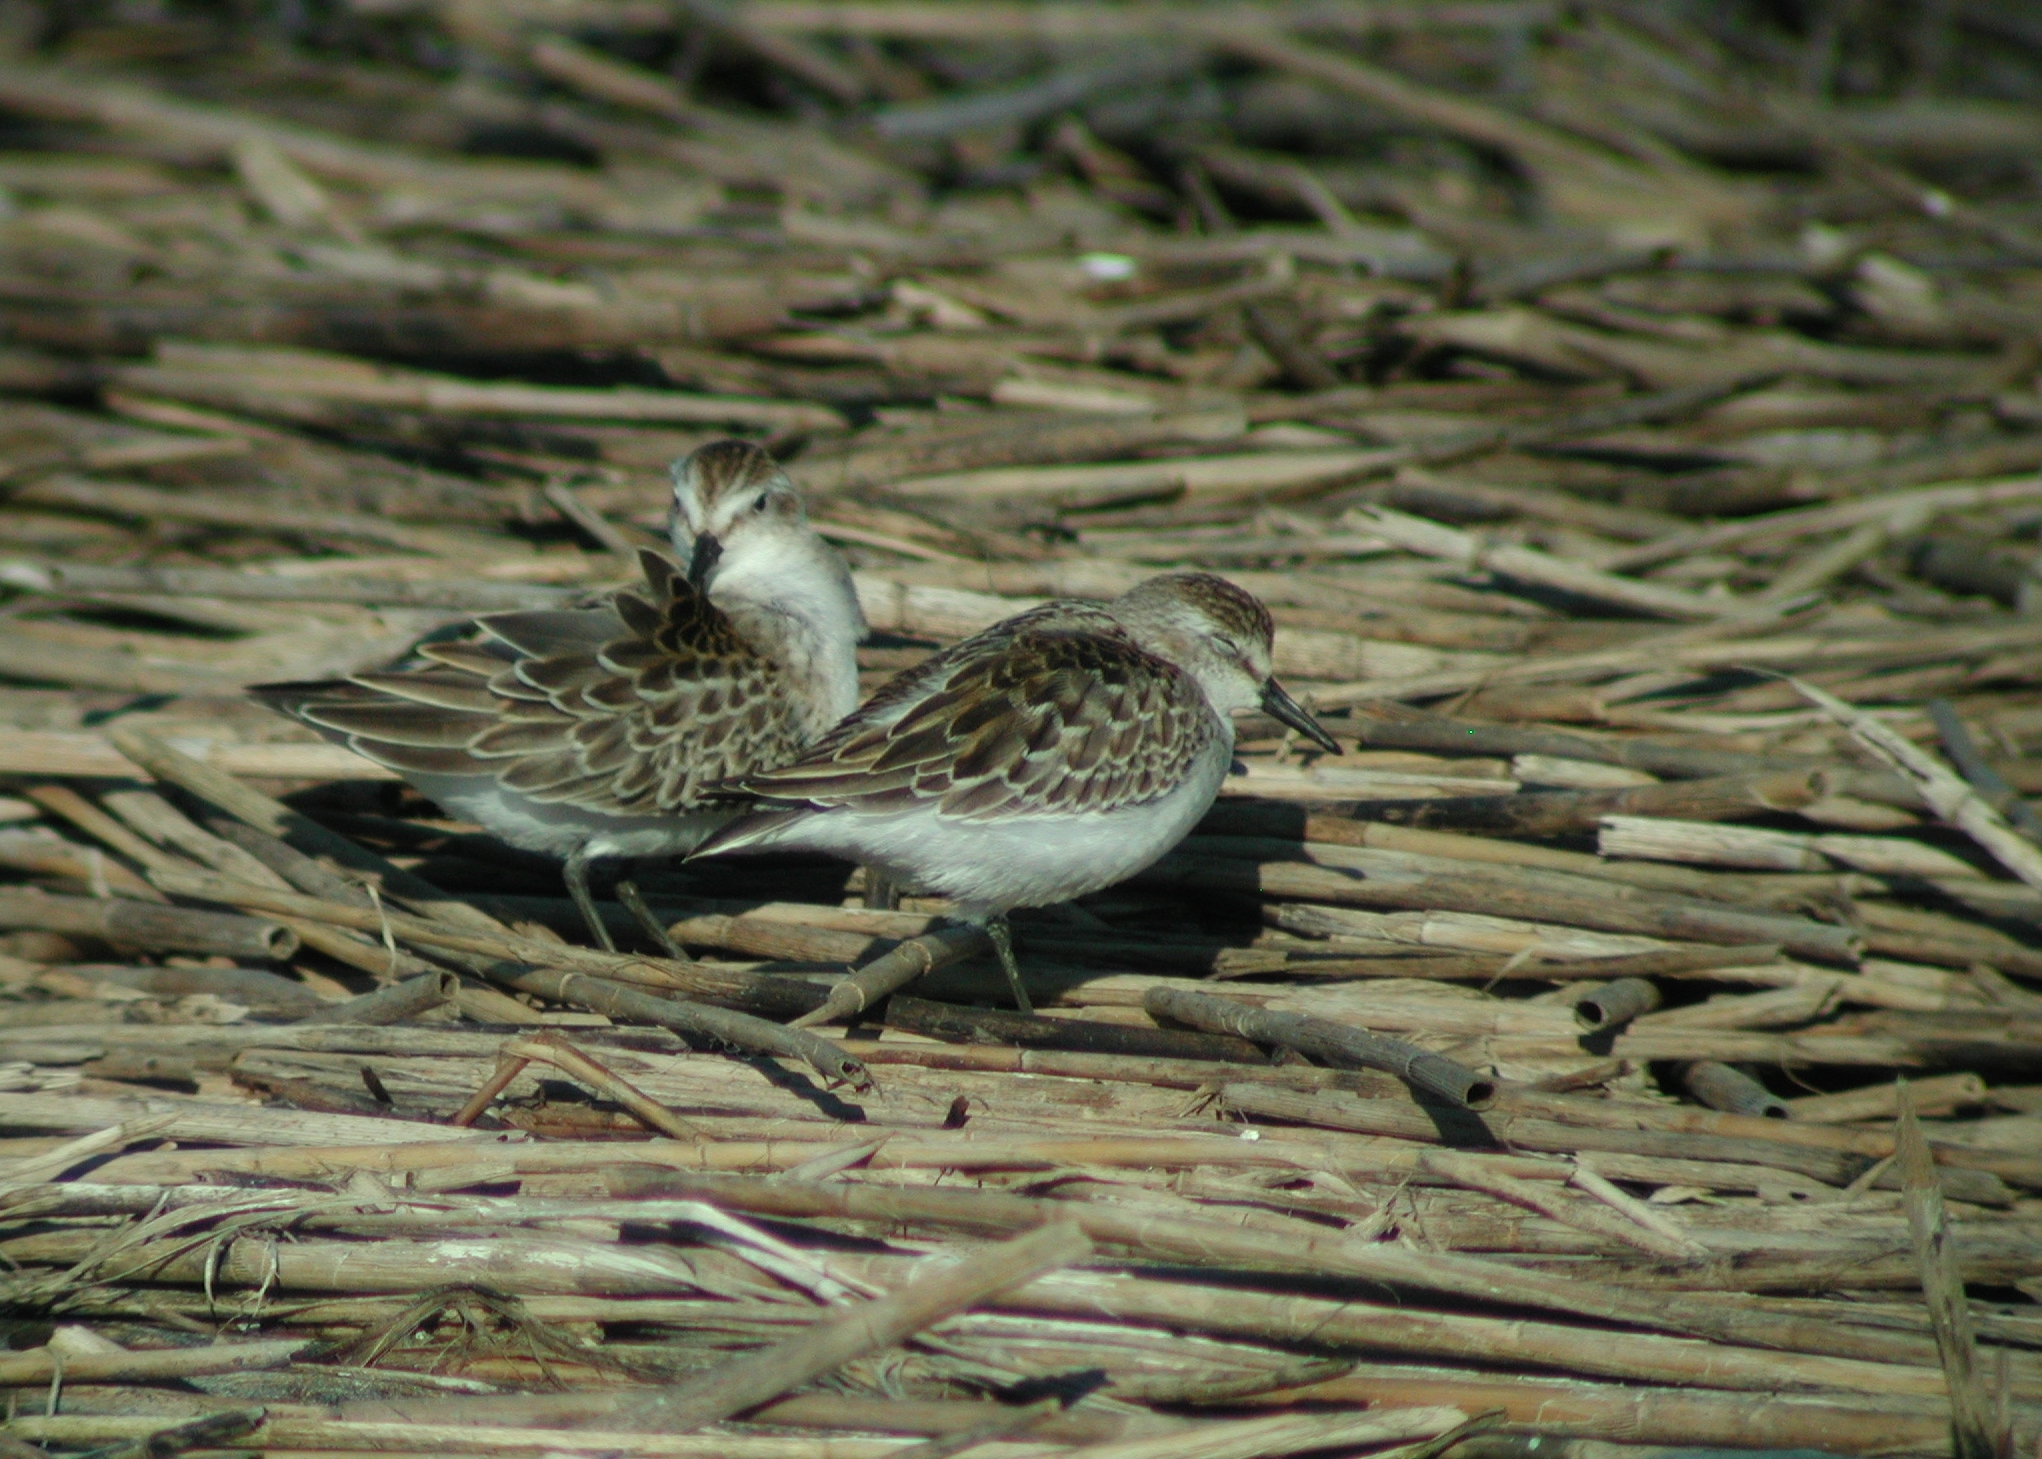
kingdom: Animalia
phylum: Chordata
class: Aves
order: Charadriiformes
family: Scolopacidae
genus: Calidris
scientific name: Calidris pusilla
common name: Semipalmated sandpiper
